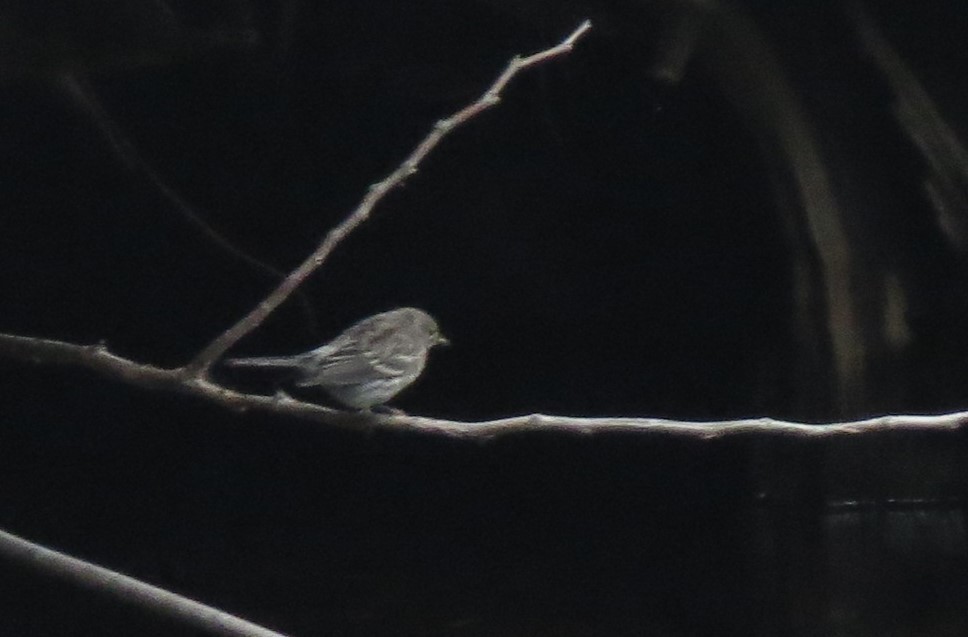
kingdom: Animalia
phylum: Chordata
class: Aves
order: Passeriformes
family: Parulidae
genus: Setophaga
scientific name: Setophaga coronata
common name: Myrtle warbler
